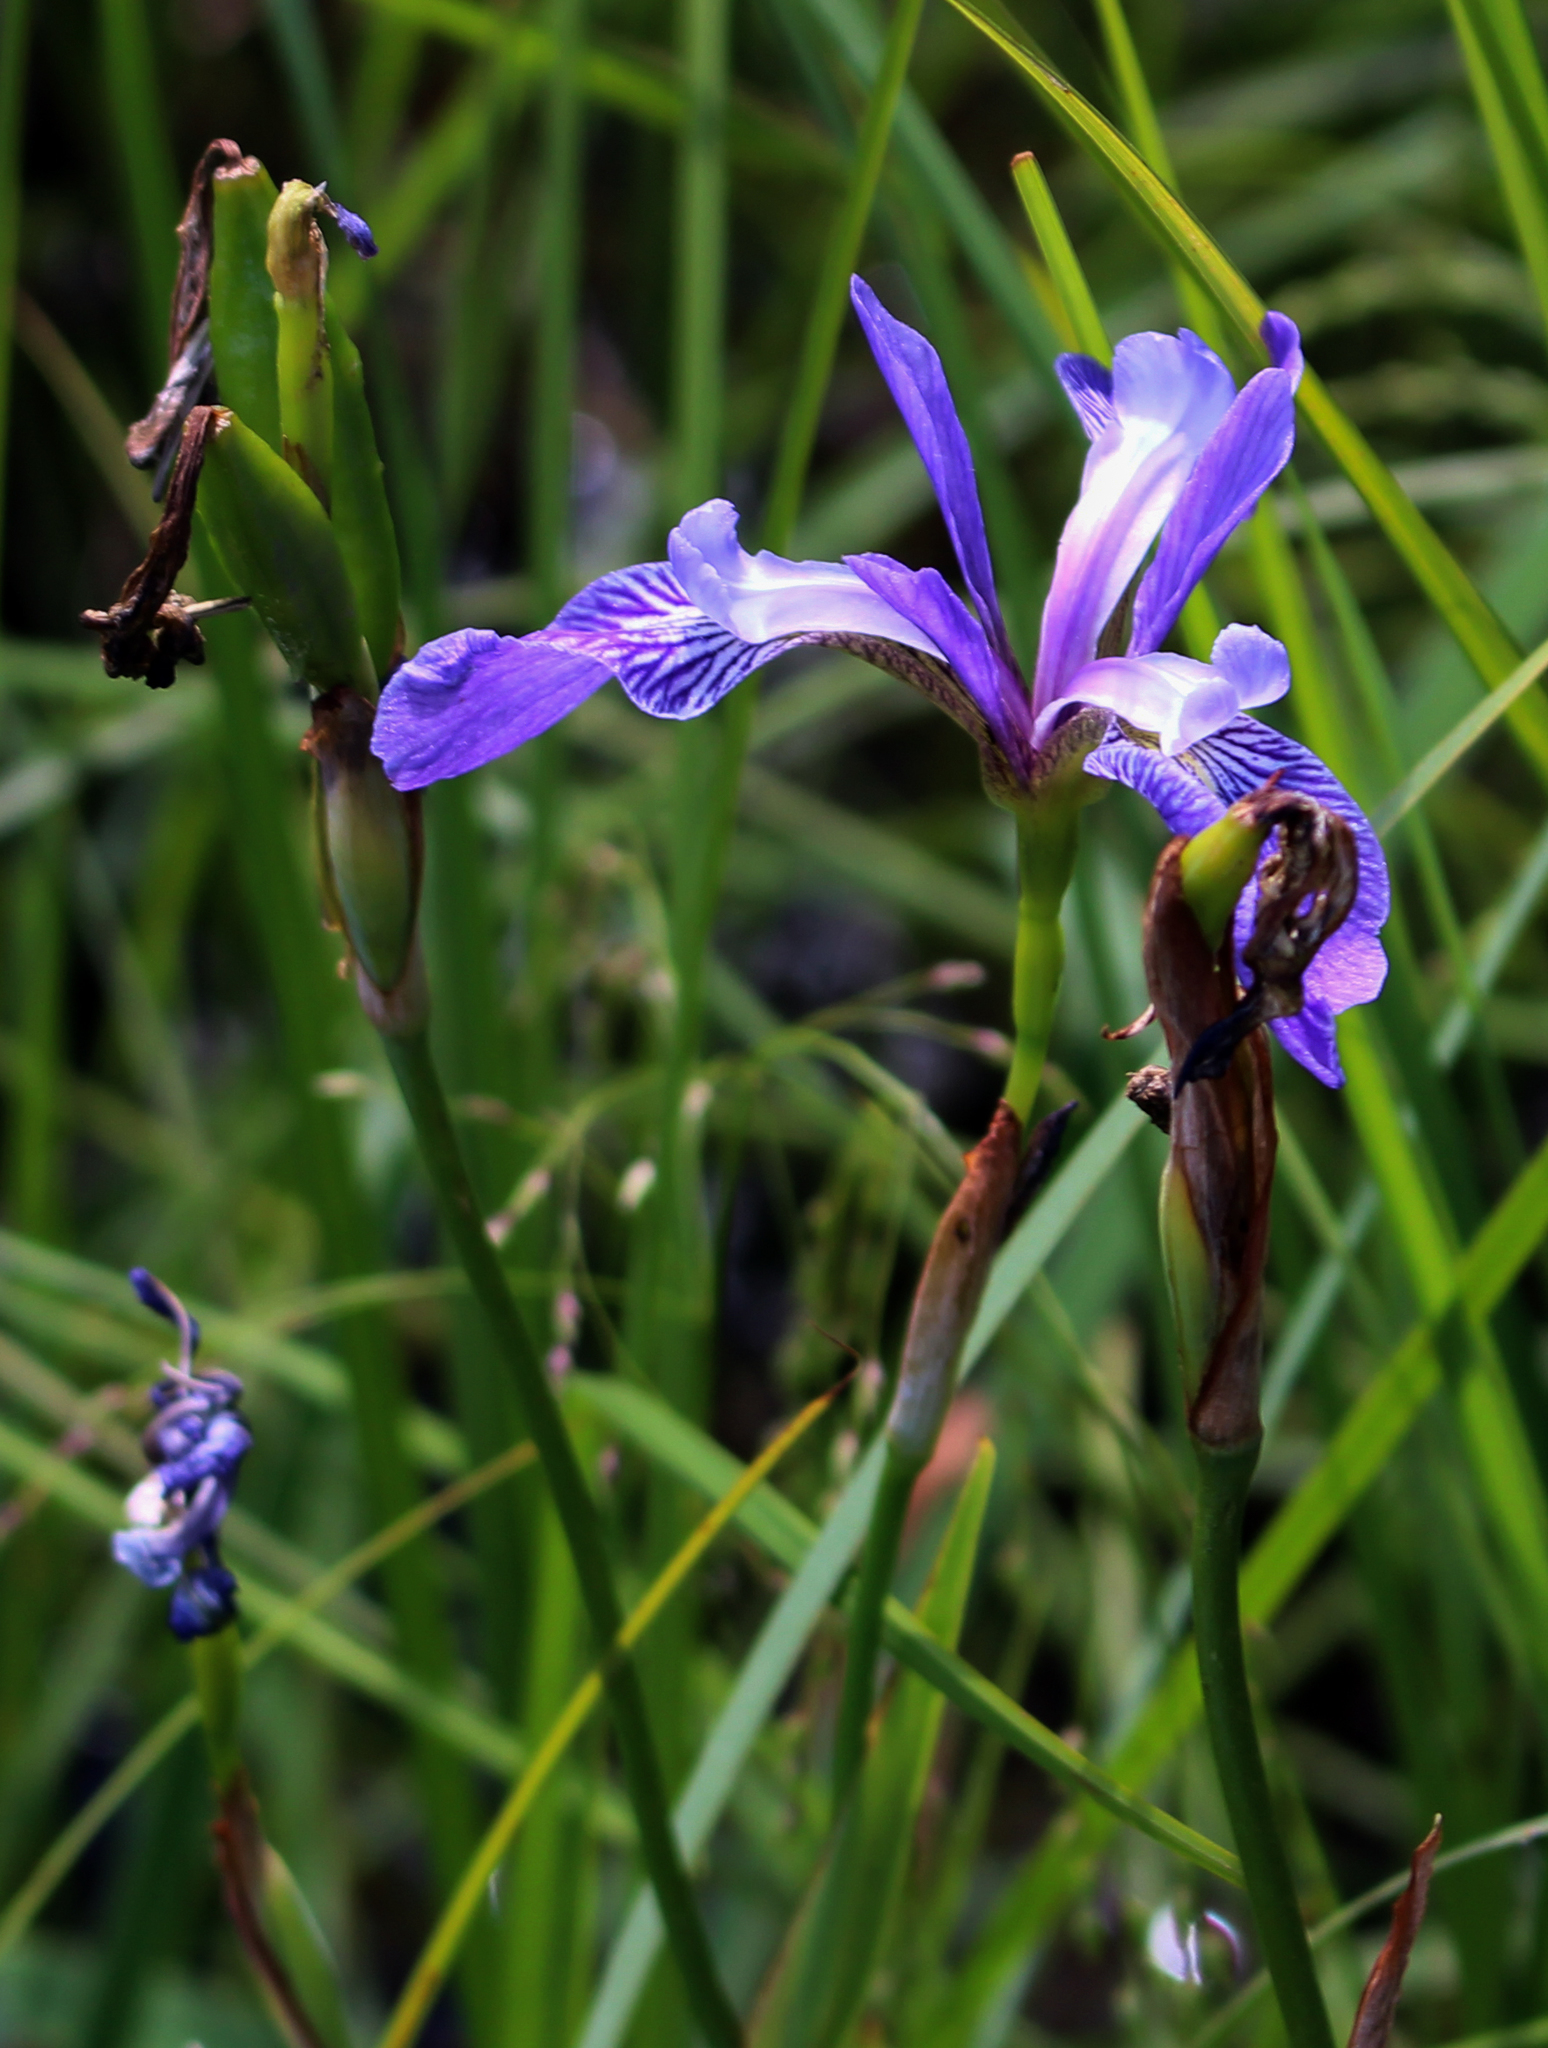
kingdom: Plantae
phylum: Tracheophyta
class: Liliopsida
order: Asparagales
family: Iridaceae
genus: Iris
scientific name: Iris versicolor
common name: Purple iris
